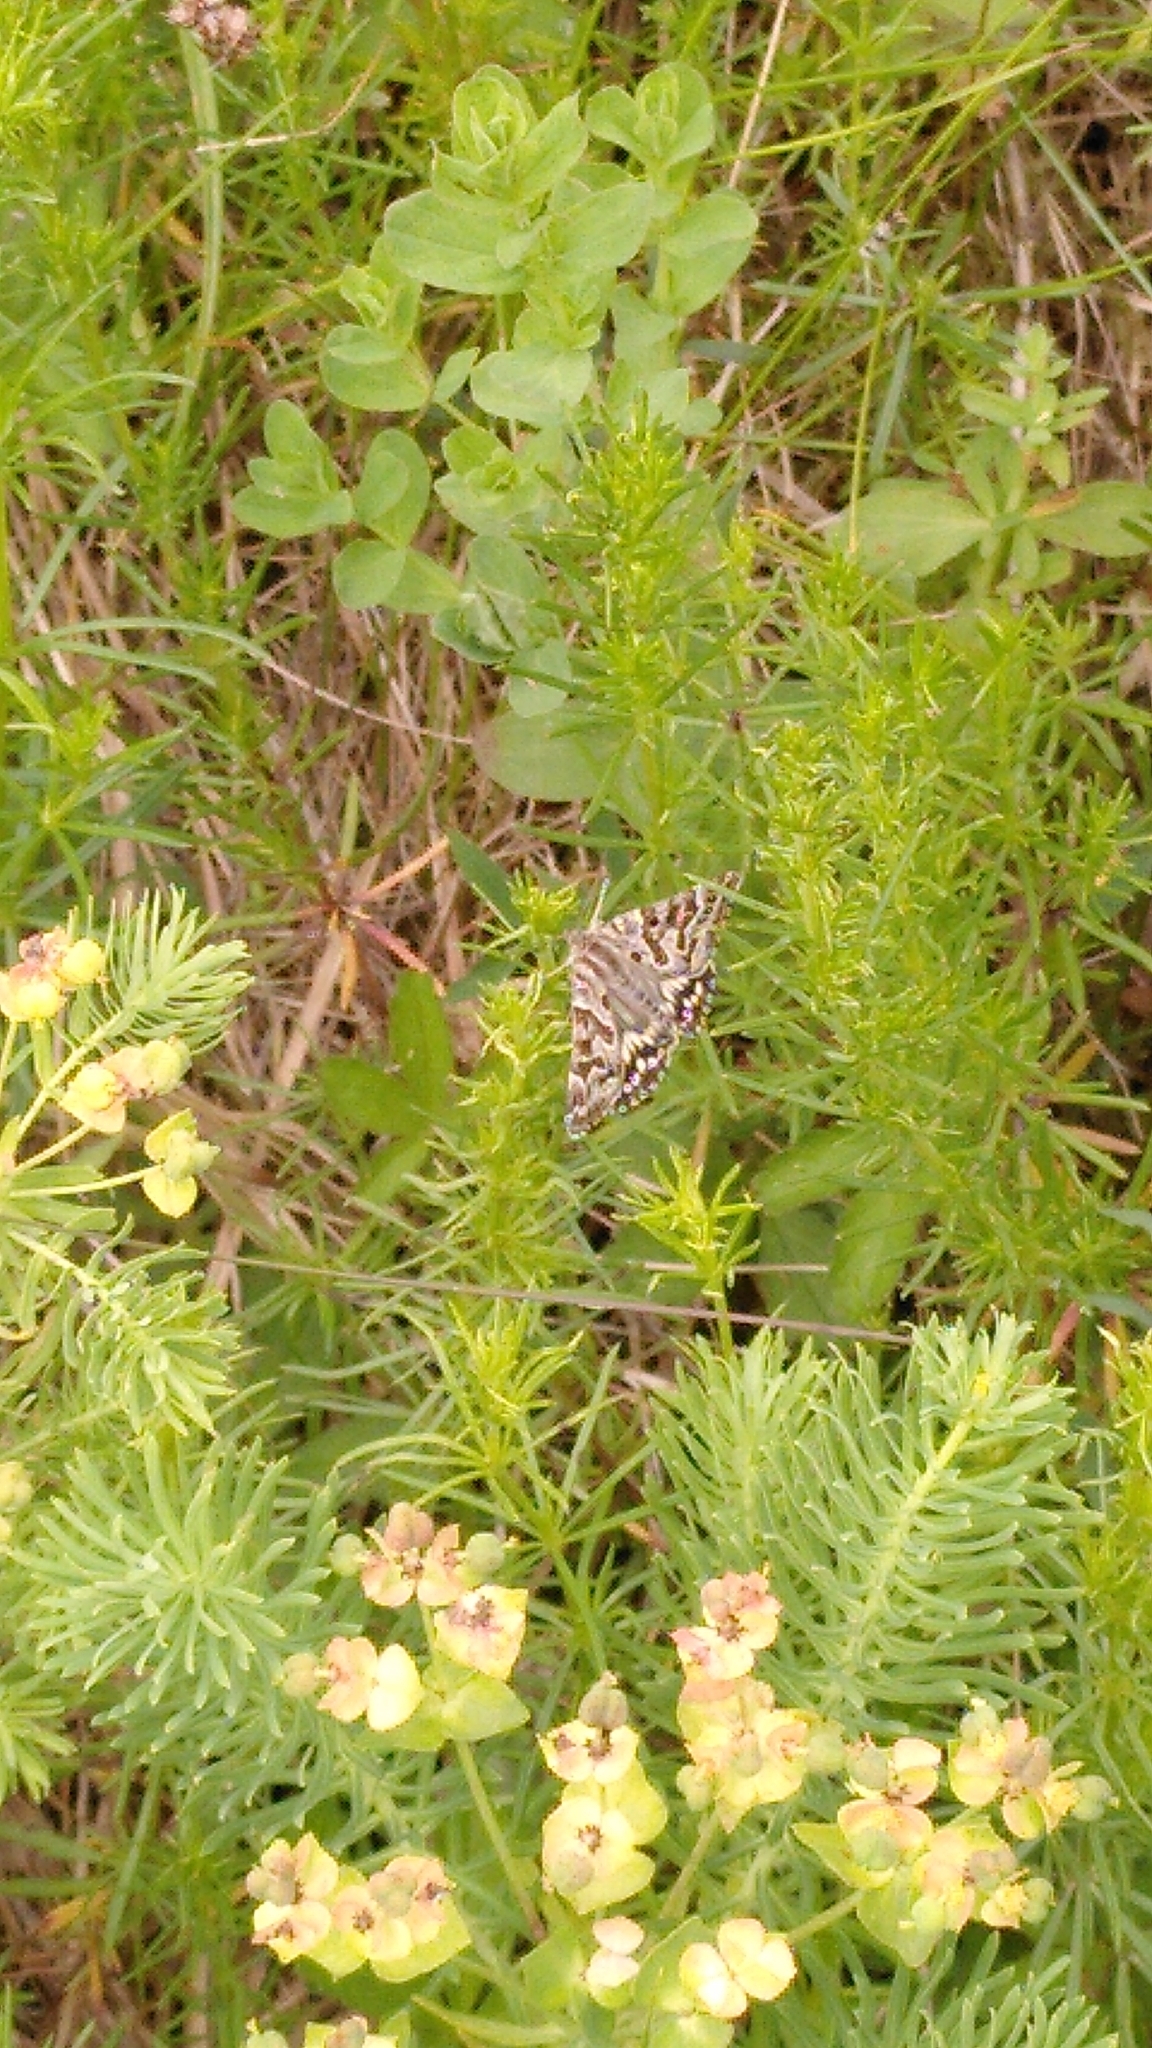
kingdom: Animalia
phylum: Arthropoda
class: Insecta
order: Lepidoptera
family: Erebidae
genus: Callistege
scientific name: Callistege mi
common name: Mother shipton
